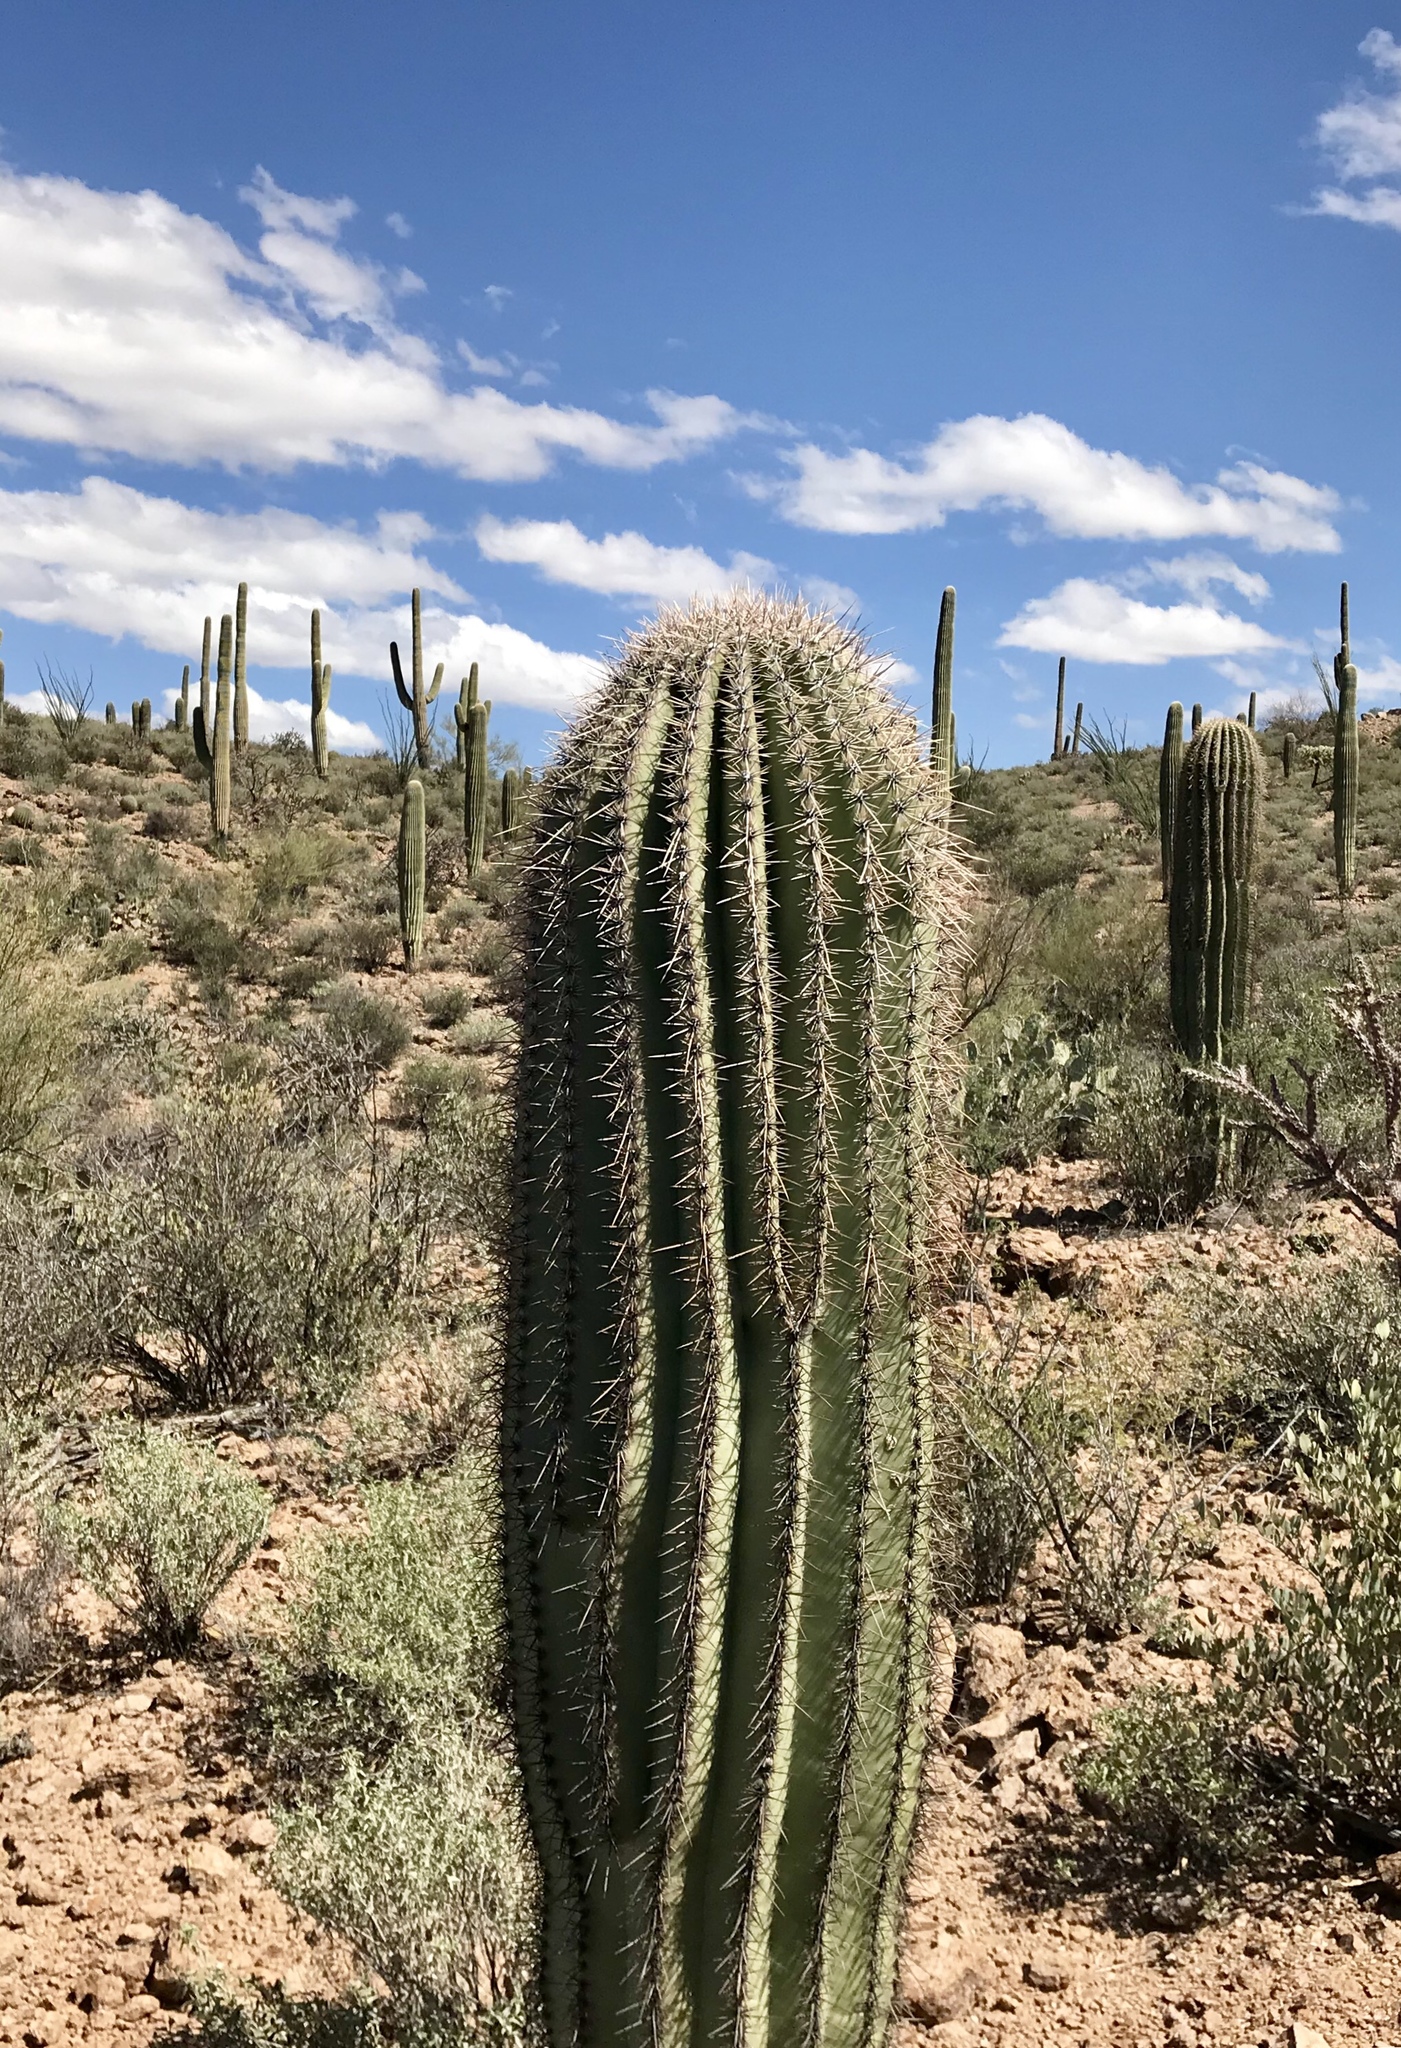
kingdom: Plantae
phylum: Tracheophyta
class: Magnoliopsida
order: Caryophyllales
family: Cactaceae
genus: Carnegiea
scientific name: Carnegiea gigantea
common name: Saguaro
